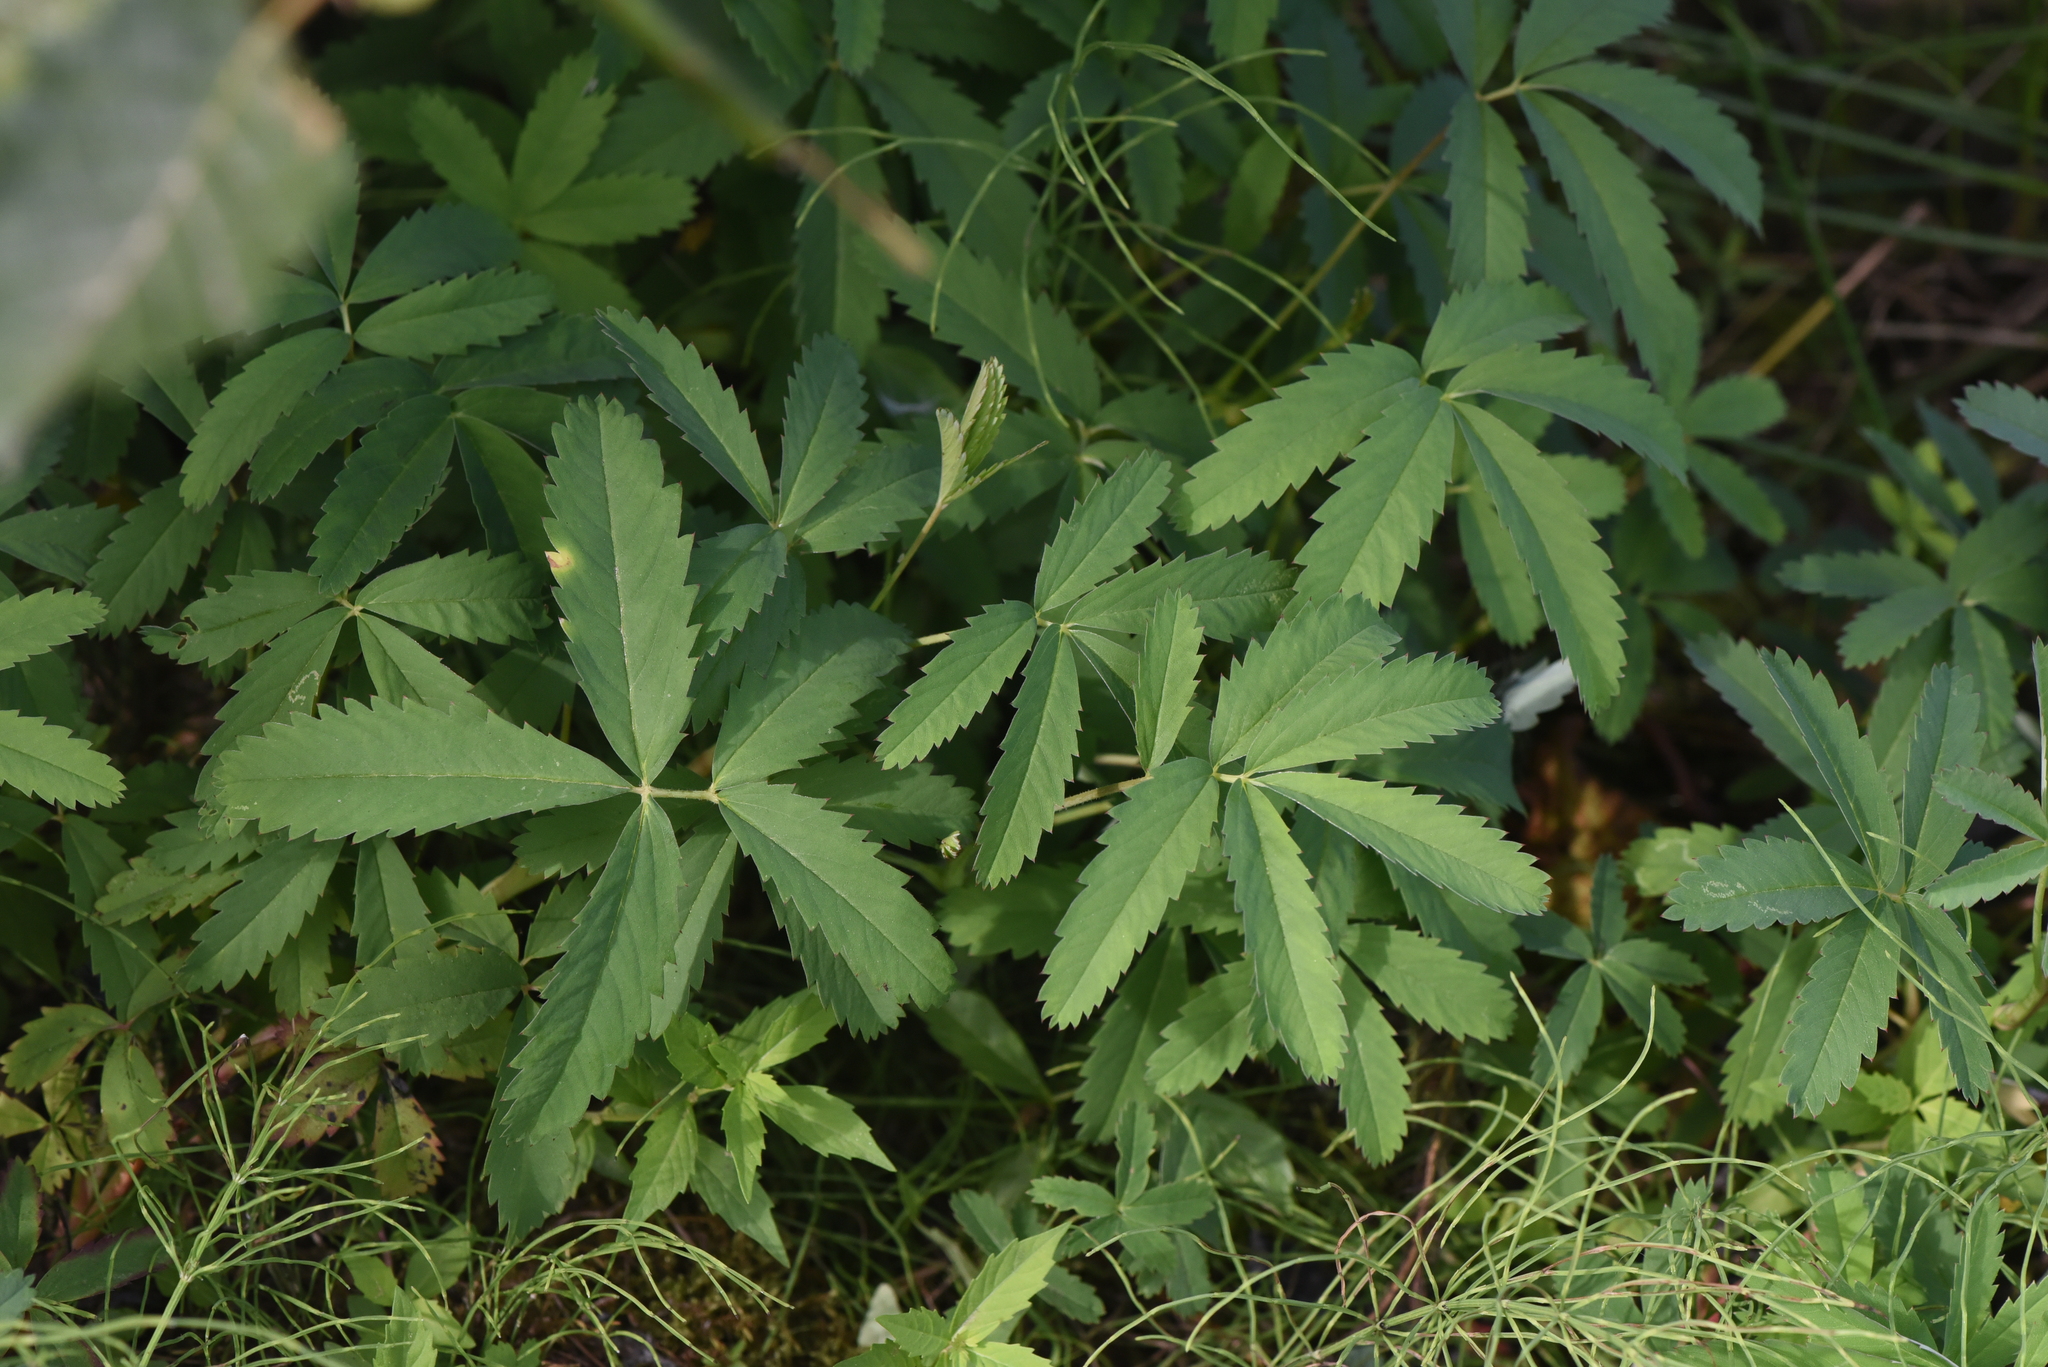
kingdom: Plantae
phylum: Tracheophyta
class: Magnoliopsida
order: Rosales
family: Rosaceae
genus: Comarum
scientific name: Comarum palustre
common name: Marsh cinquefoil
